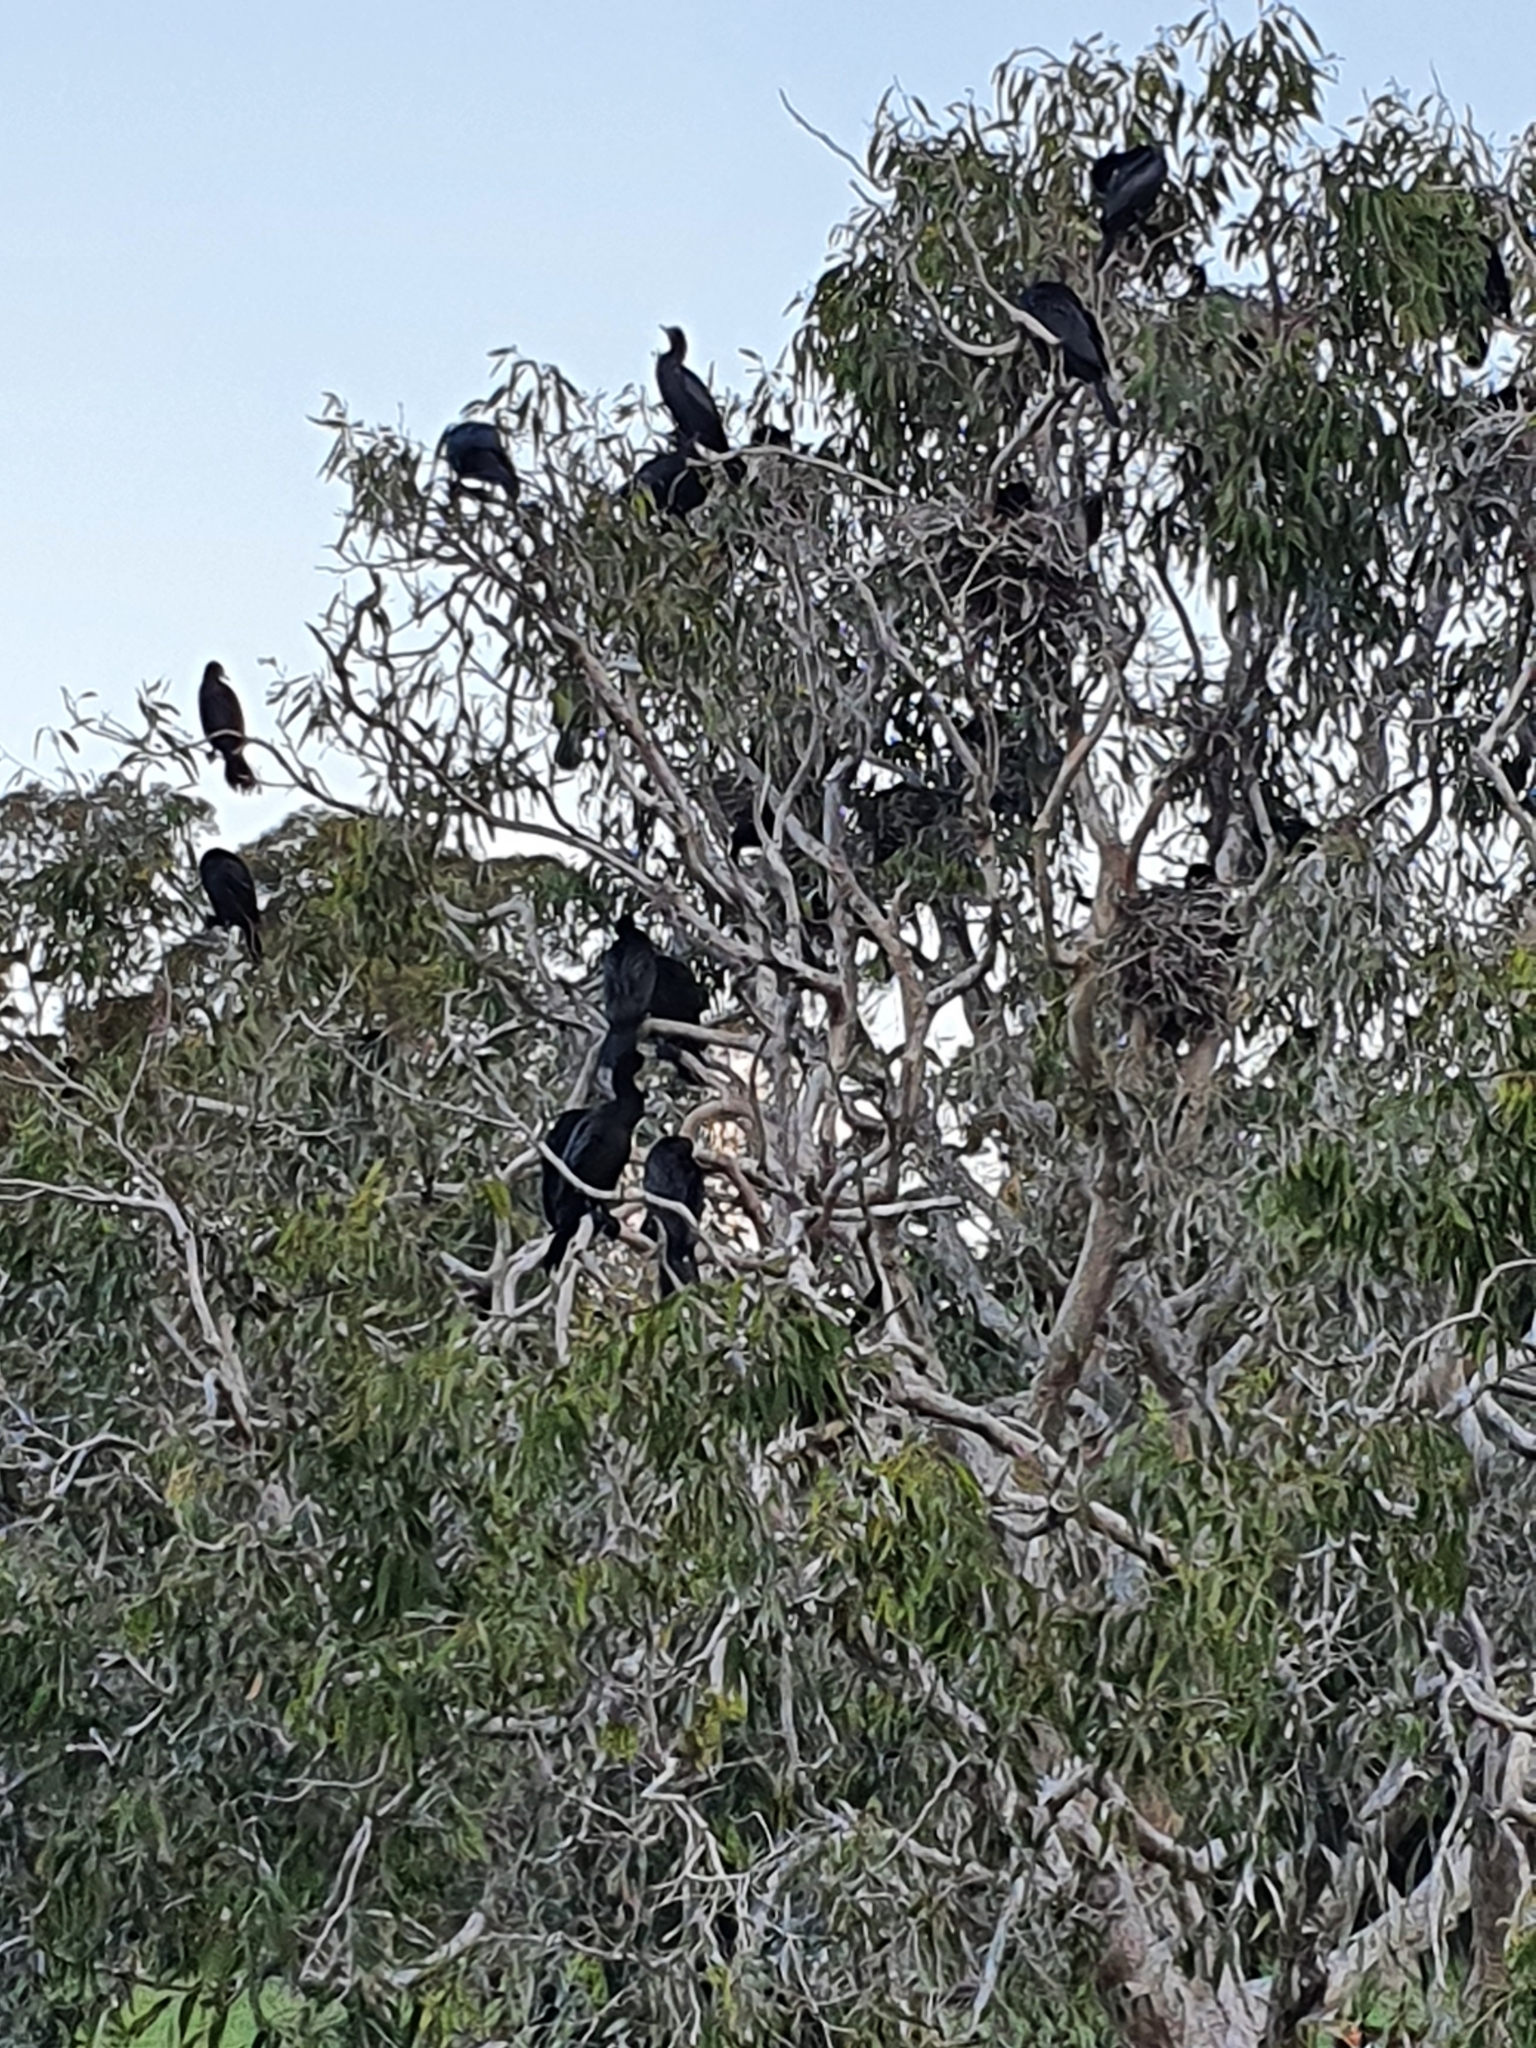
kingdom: Animalia
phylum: Chordata
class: Aves
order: Suliformes
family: Phalacrocoracidae
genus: Phalacrocorax
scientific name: Phalacrocorax sulcirostris
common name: Little black cormorant
